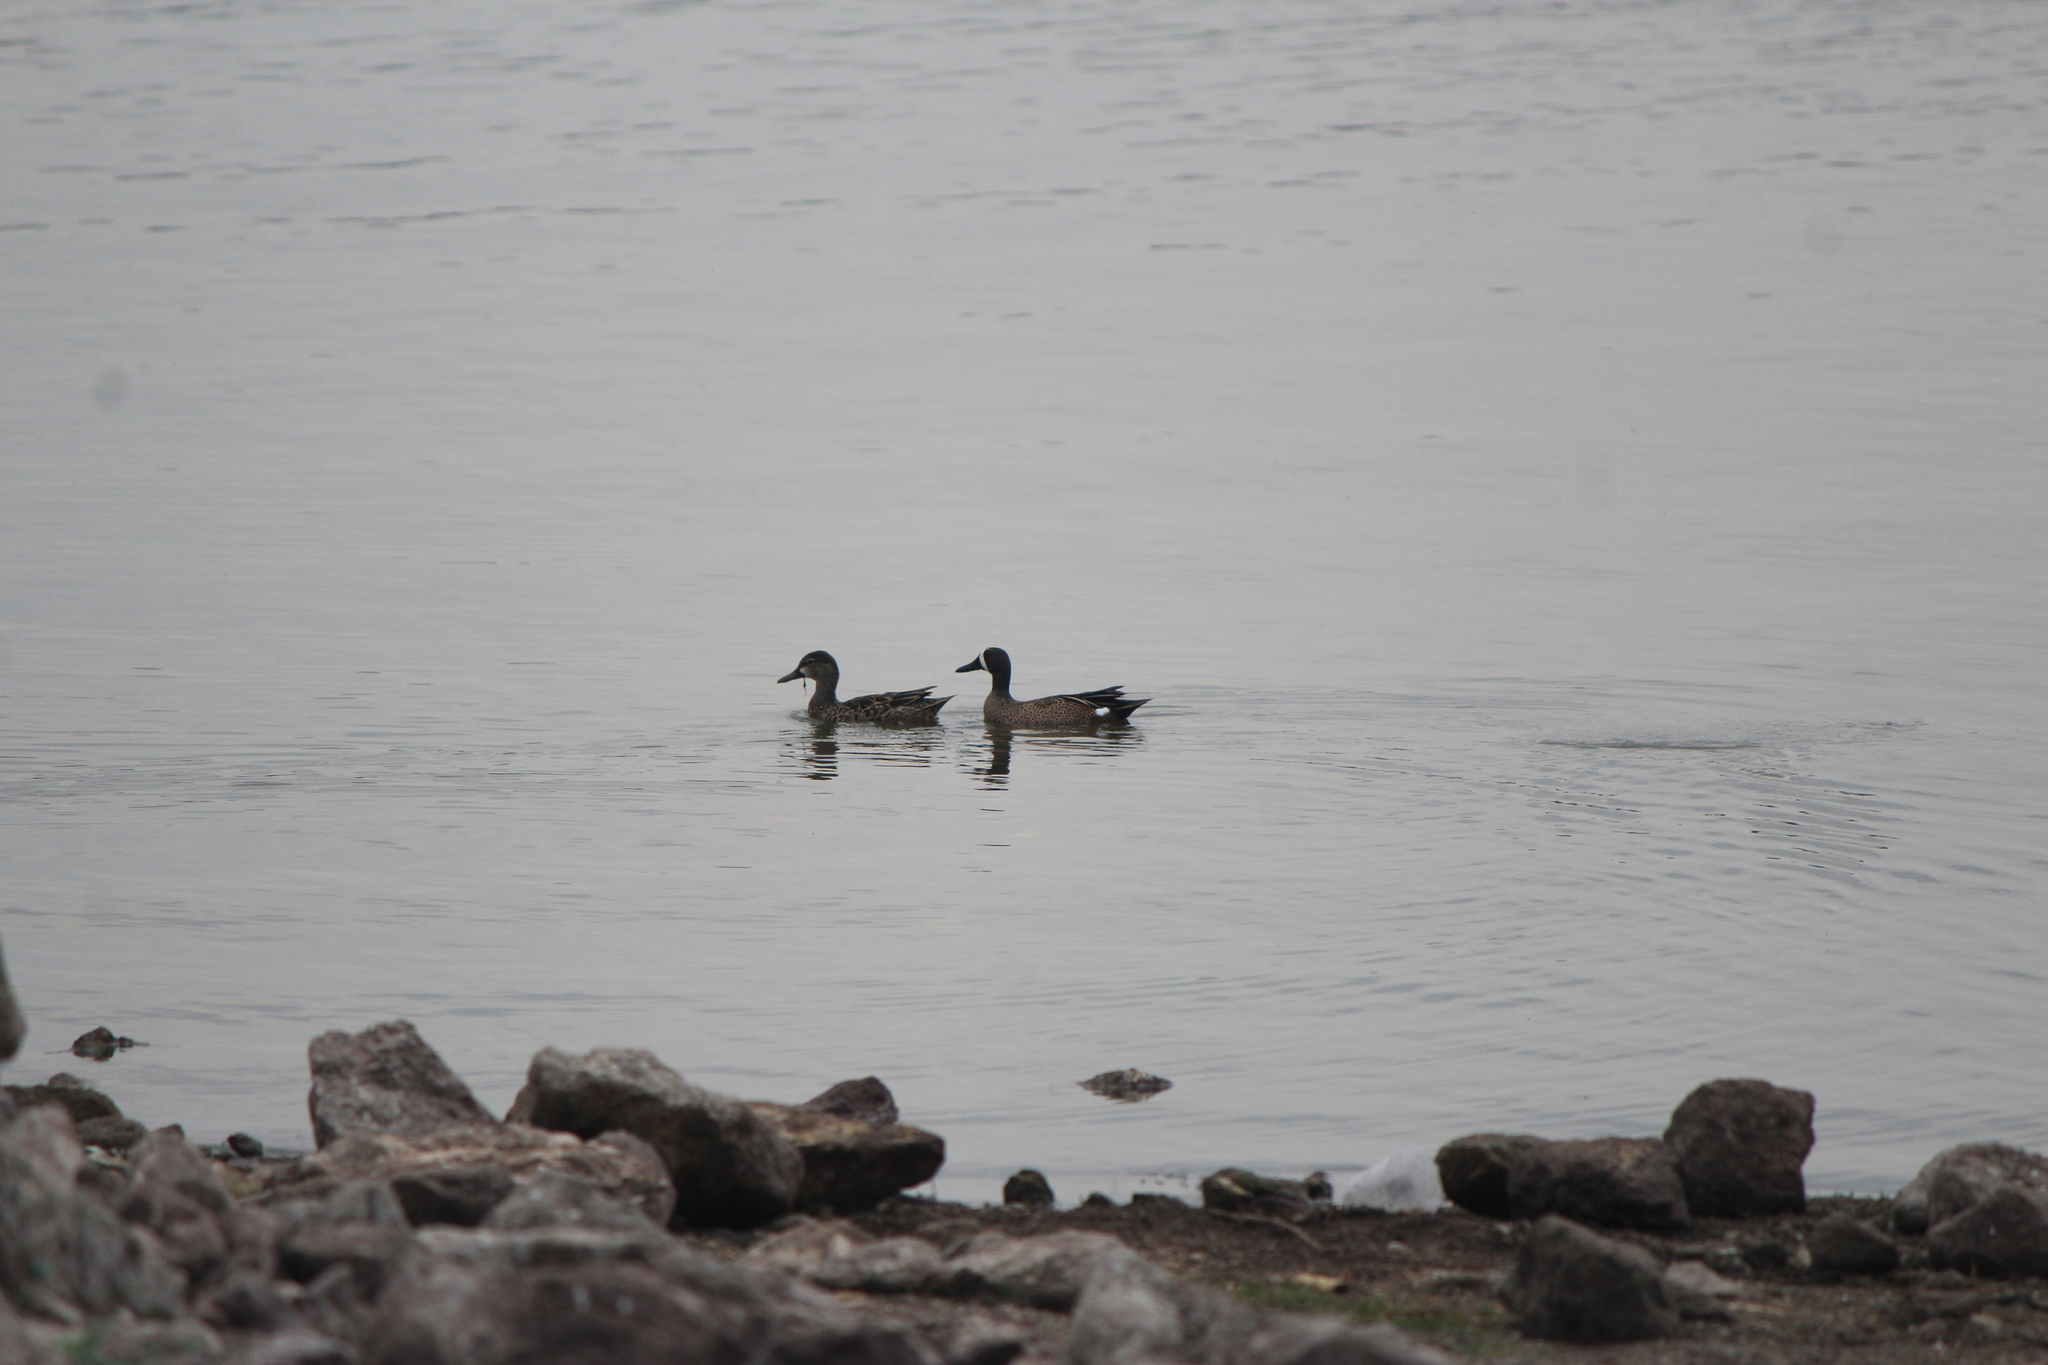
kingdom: Animalia
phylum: Chordata
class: Aves
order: Anseriformes
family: Anatidae
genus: Spatula
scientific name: Spatula discors
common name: Blue-winged teal
